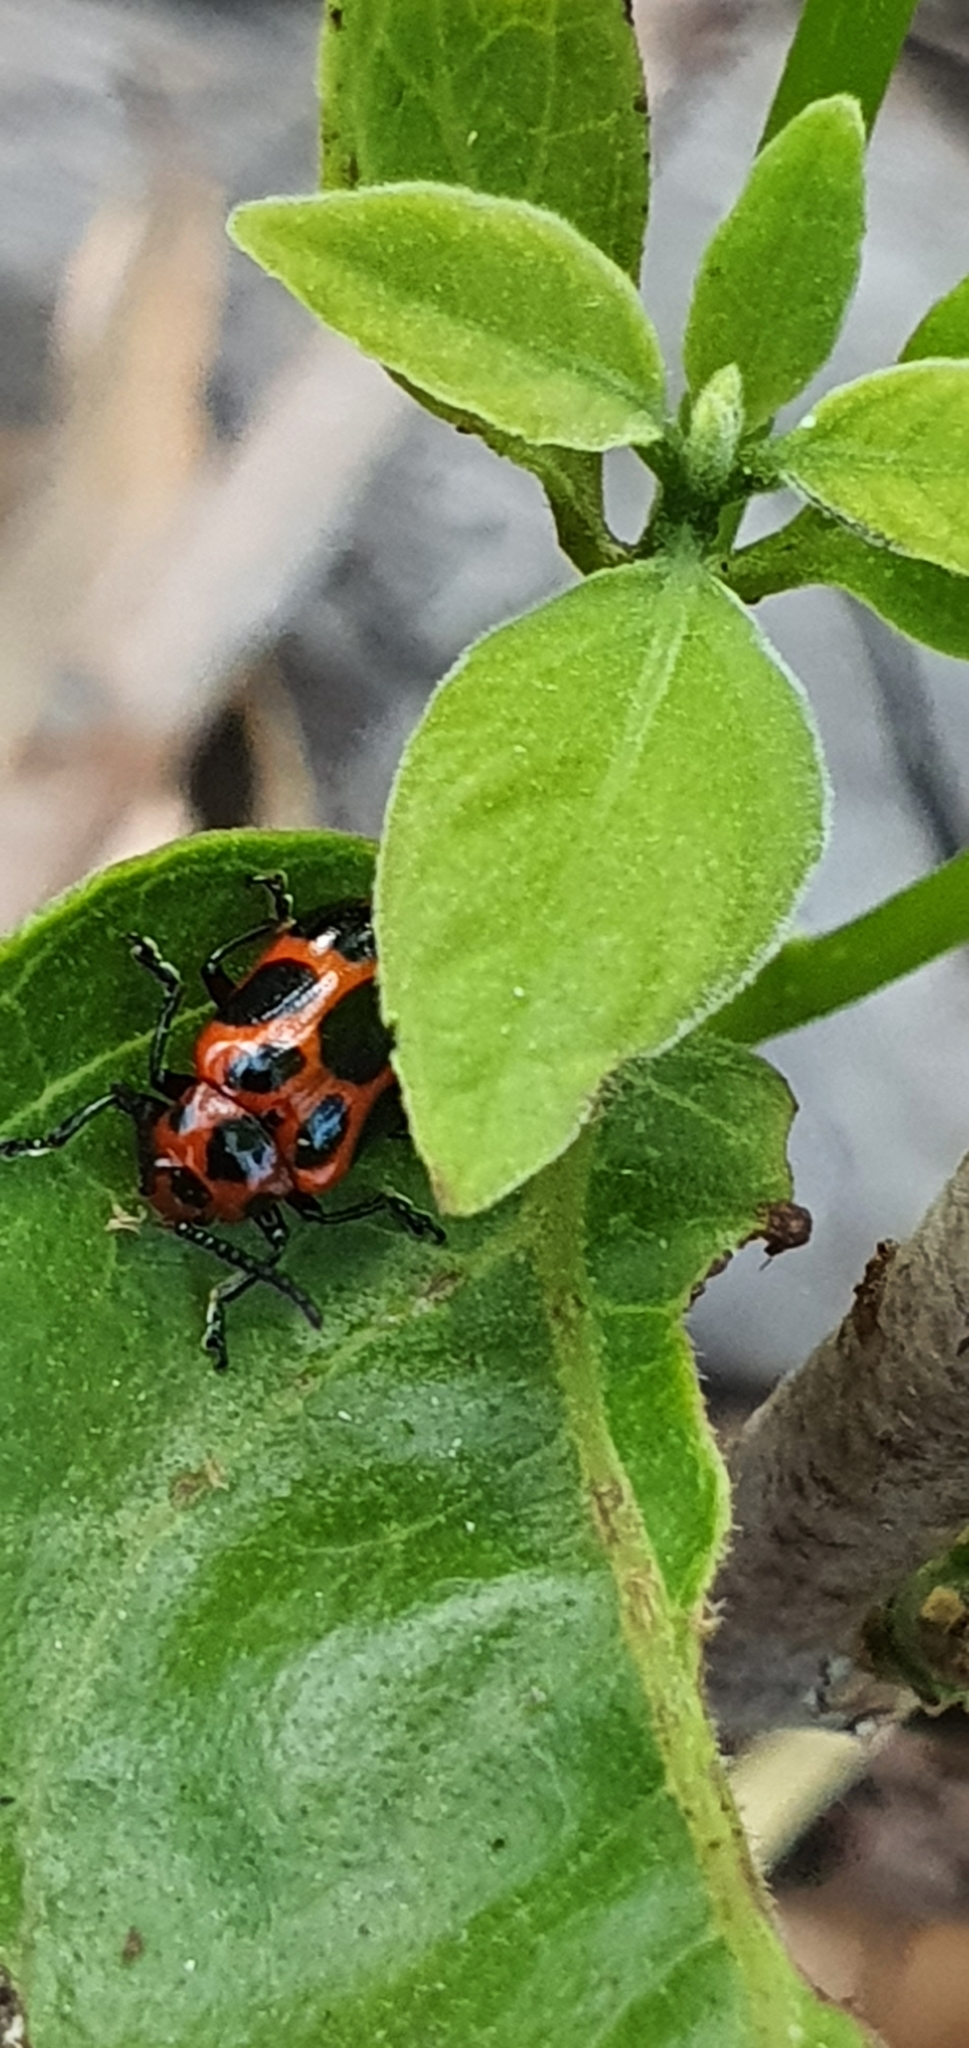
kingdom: Animalia
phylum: Arthropoda
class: Insecta
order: Coleoptera
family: Chrysomelidae
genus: Phyllocharis
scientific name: Phyllocharis
